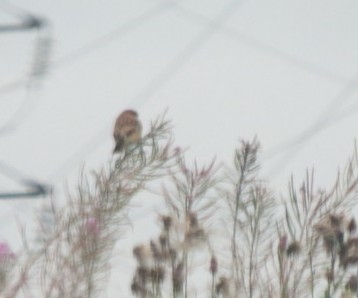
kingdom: Animalia
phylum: Chordata
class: Aves
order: Passeriformes
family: Muscicapidae
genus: Saxicola
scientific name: Saxicola maurus
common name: Siberian stonechat
